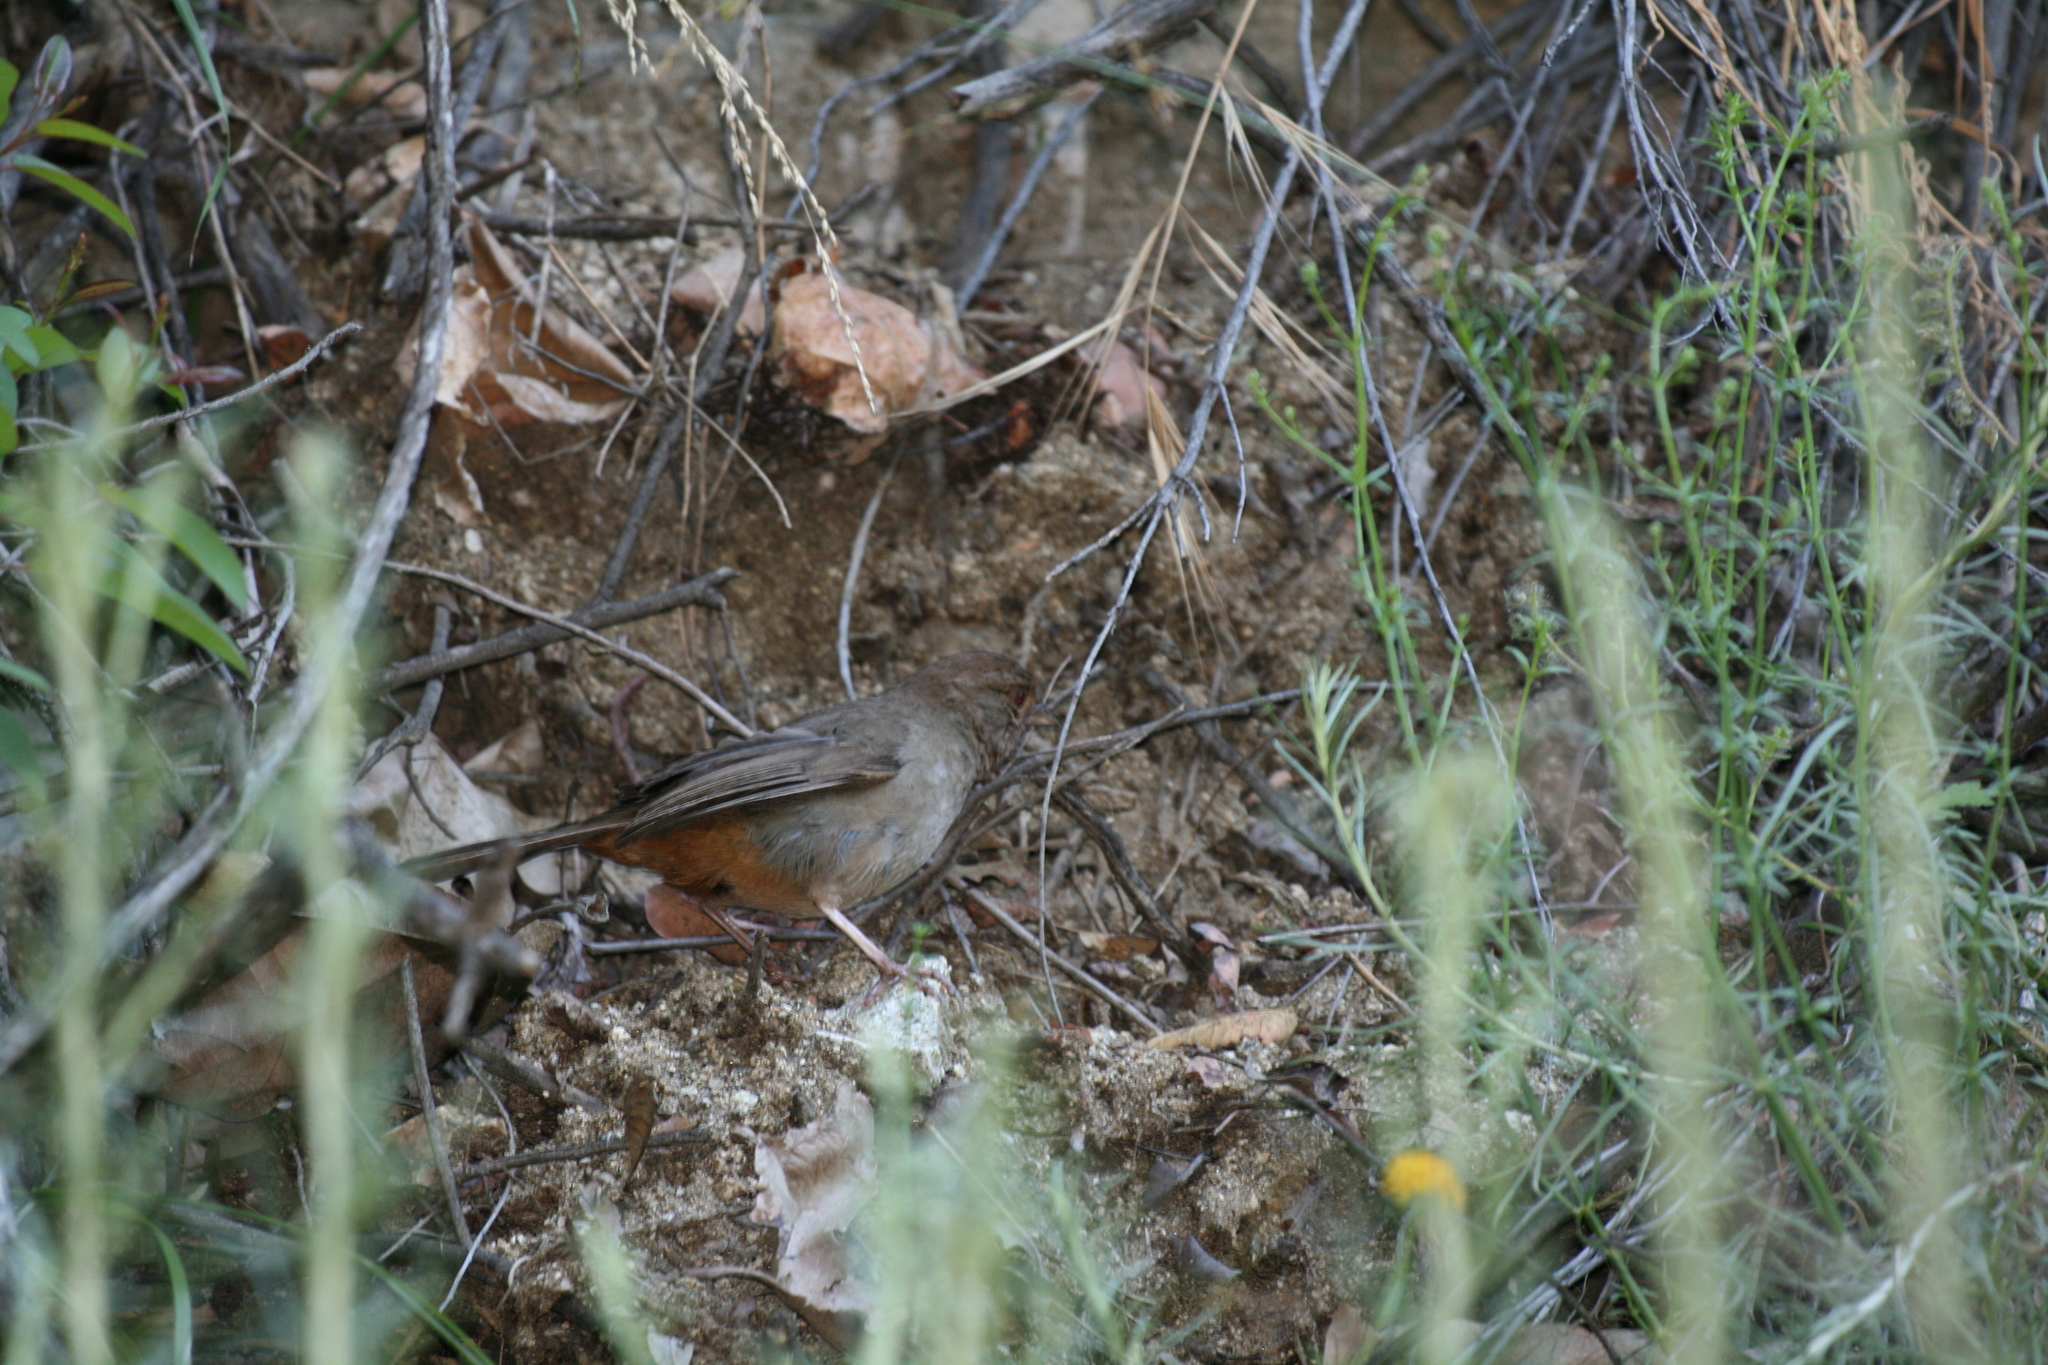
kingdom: Animalia
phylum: Chordata
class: Aves
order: Passeriformes
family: Passerellidae
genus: Melozone
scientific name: Melozone crissalis
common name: California towhee
